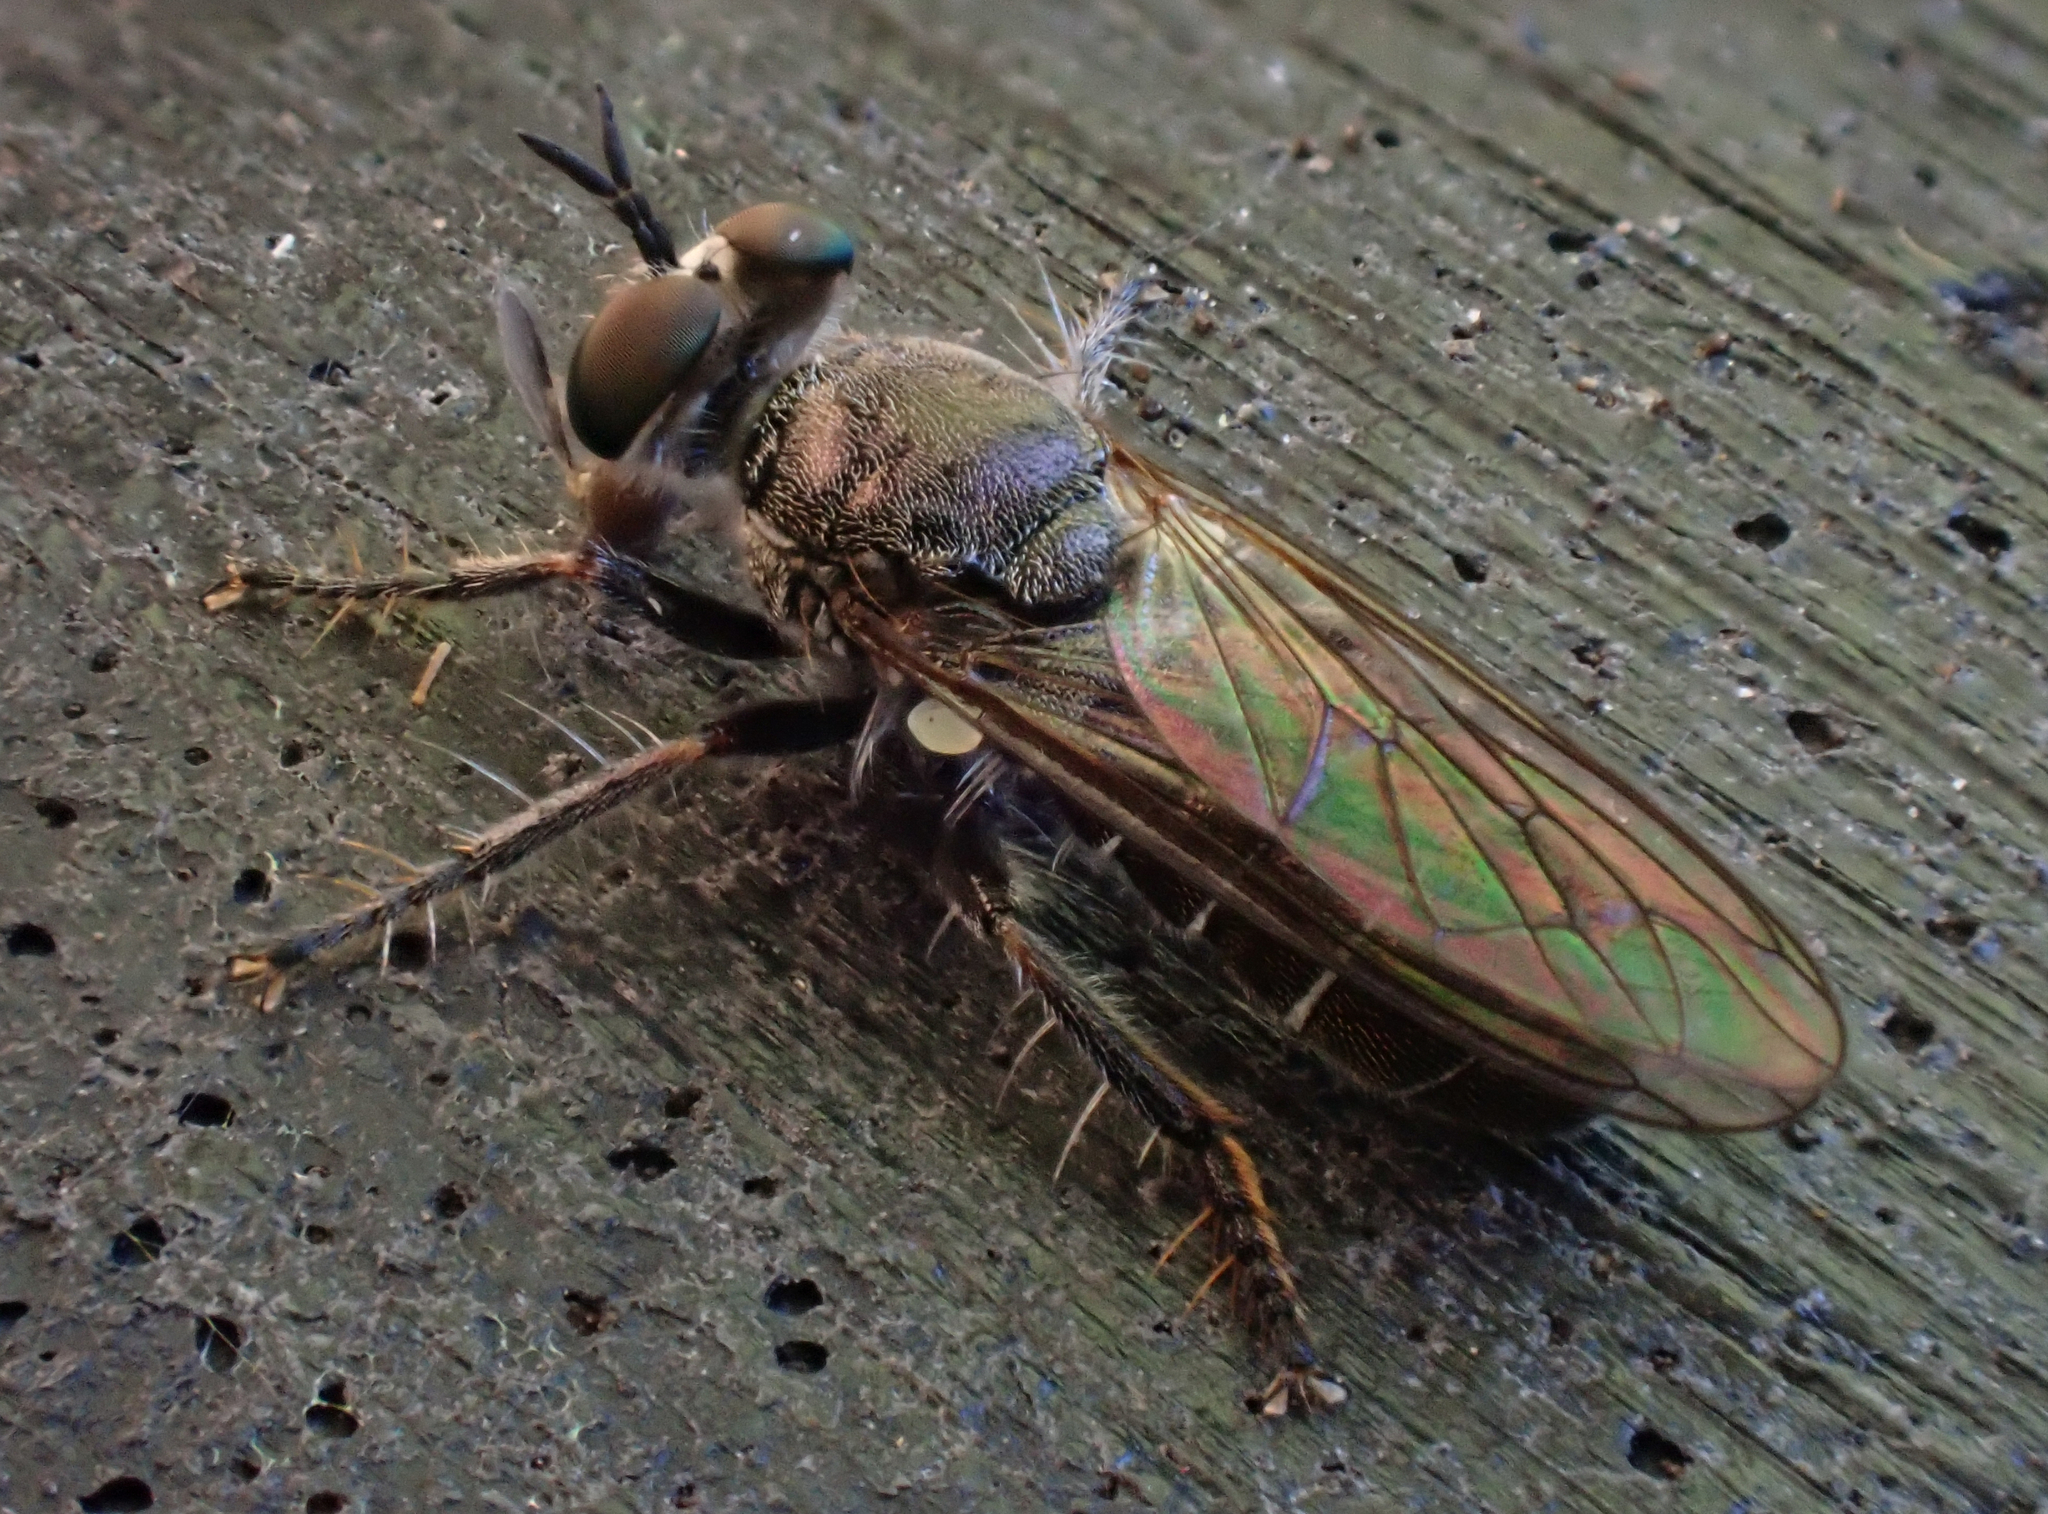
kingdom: Animalia
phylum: Arthropoda
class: Insecta
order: Diptera
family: Asilidae
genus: Atomosia
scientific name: Atomosia puella
